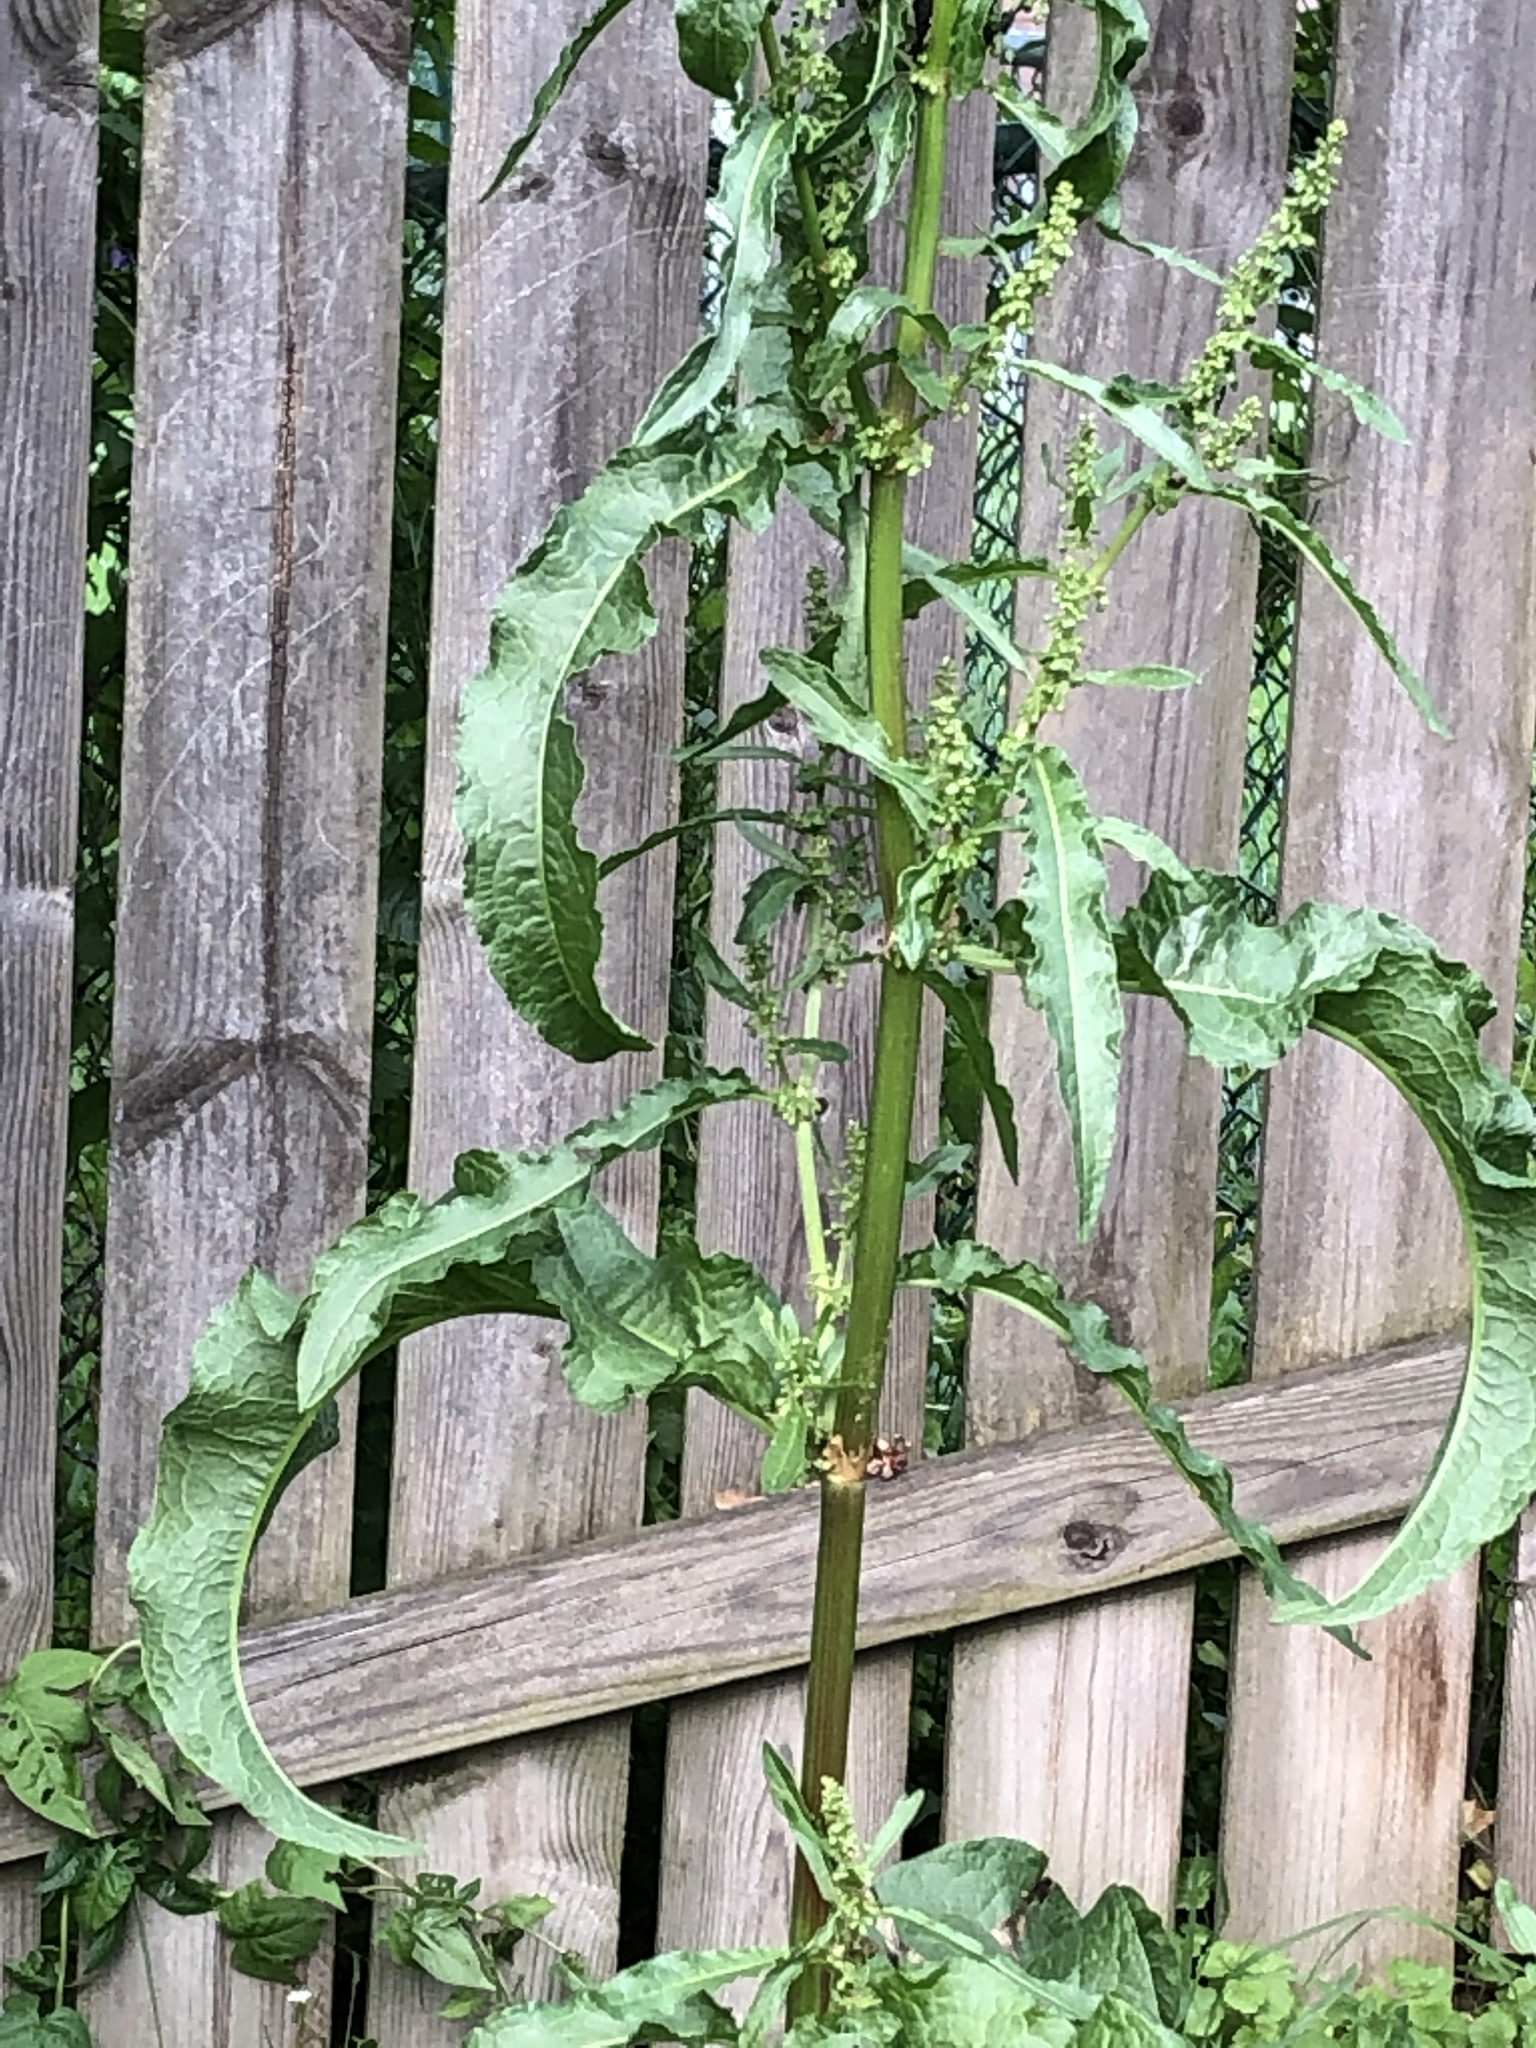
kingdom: Plantae
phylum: Tracheophyta
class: Magnoliopsida
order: Caryophyllales
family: Polygonaceae
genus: Rumex
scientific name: Rumex crispus
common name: Curled dock
